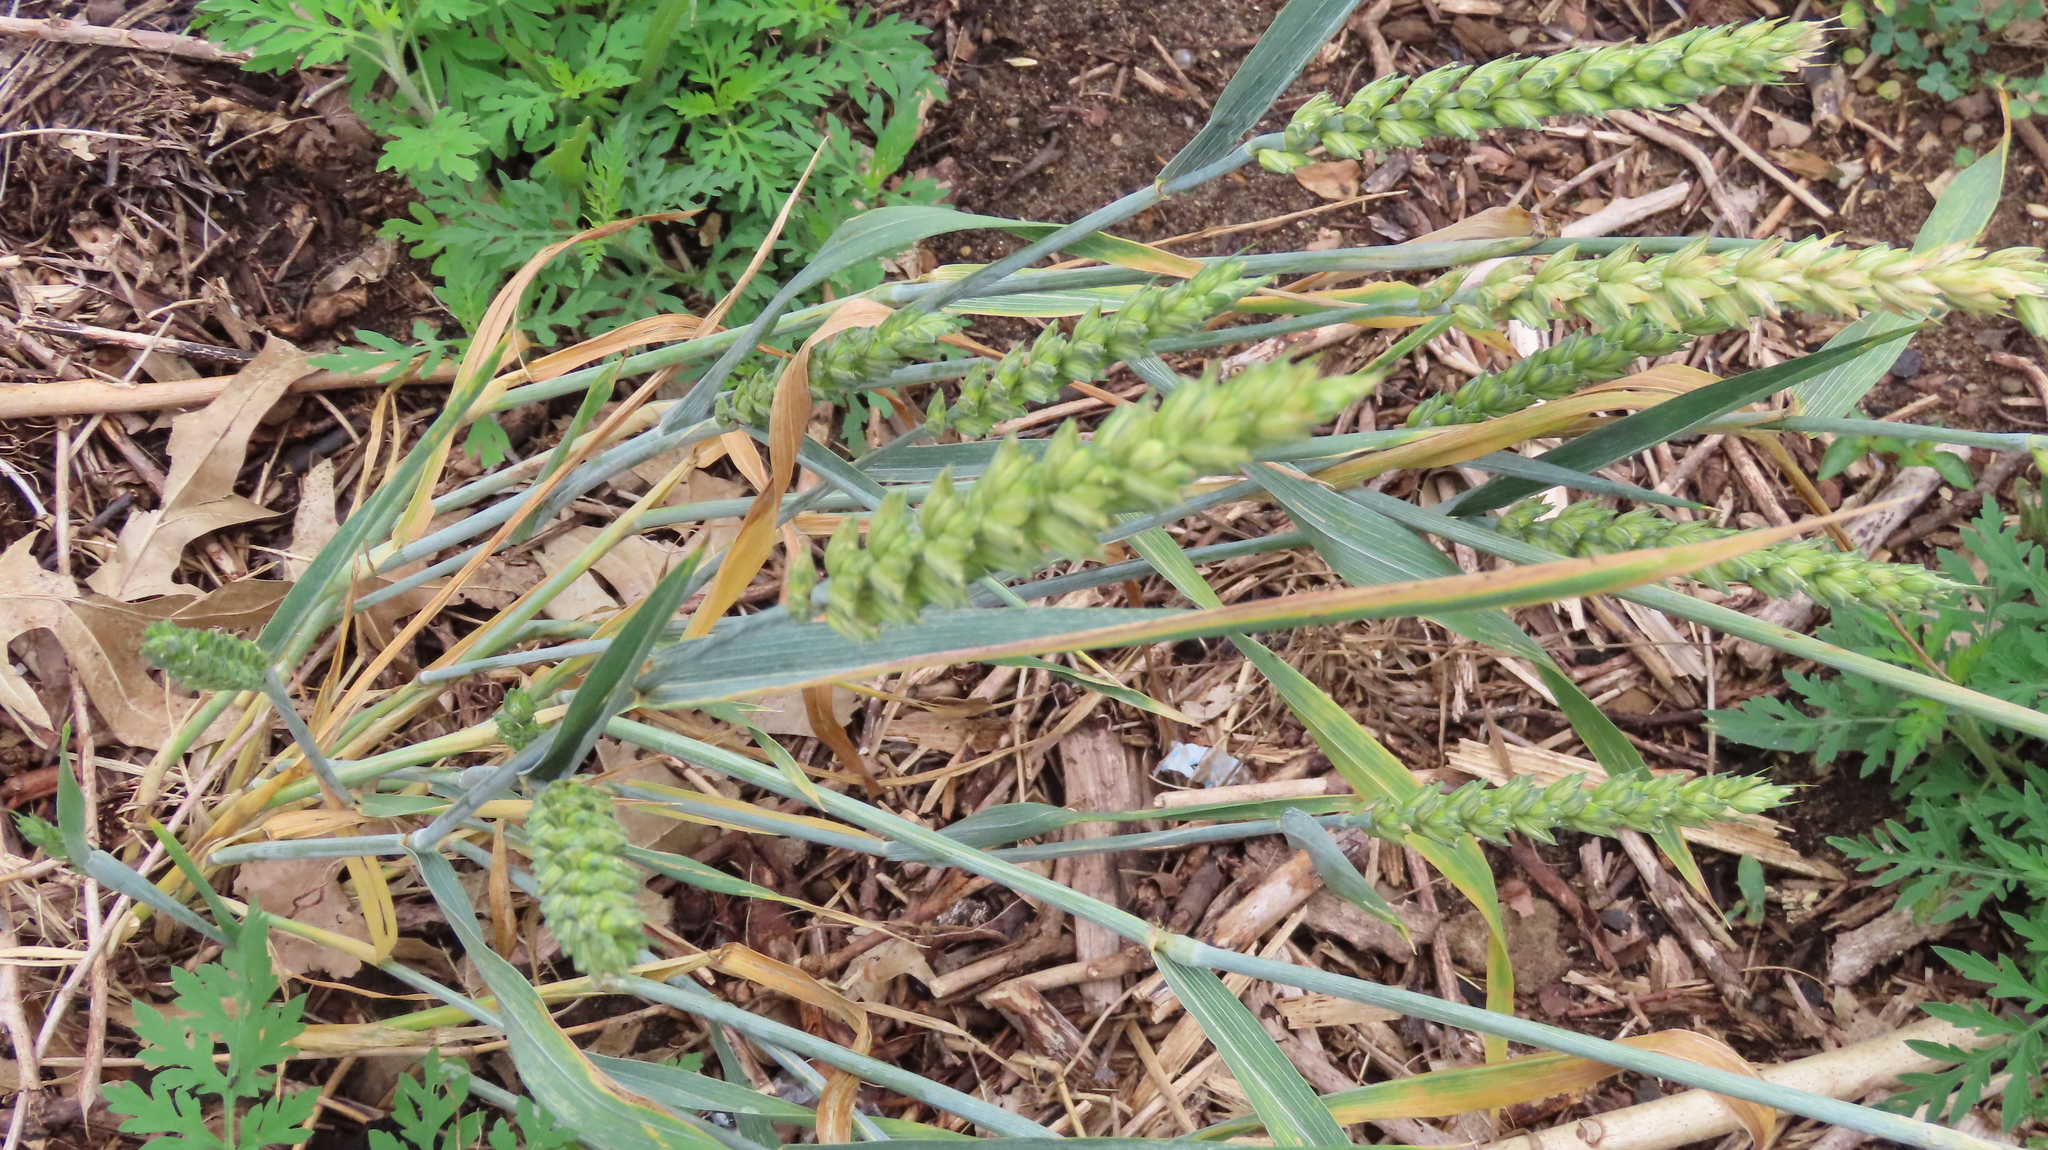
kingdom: Plantae
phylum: Tracheophyta
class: Liliopsida
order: Poales
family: Poaceae
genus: Triticum
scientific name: Triticum aestivum
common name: Common wheat
